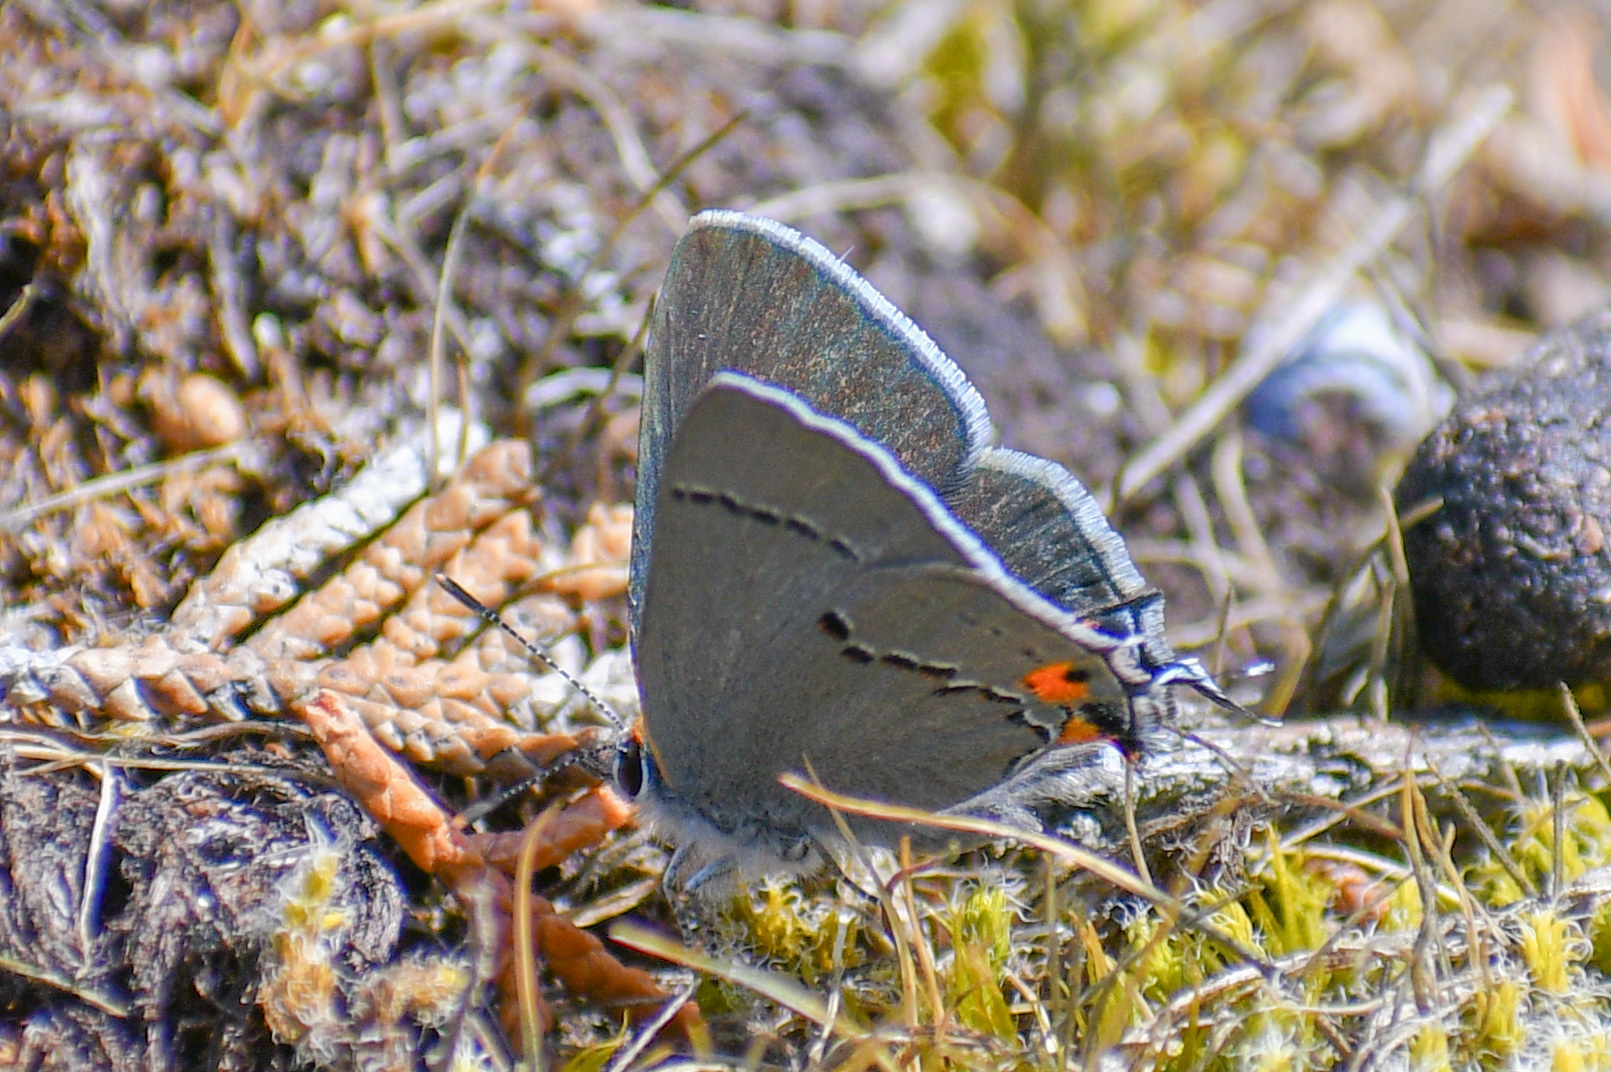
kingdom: Animalia
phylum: Arthropoda
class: Insecta
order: Lepidoptera
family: Lycaenidae
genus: Strymon
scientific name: Strymon melinus
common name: Gray hairstreak
